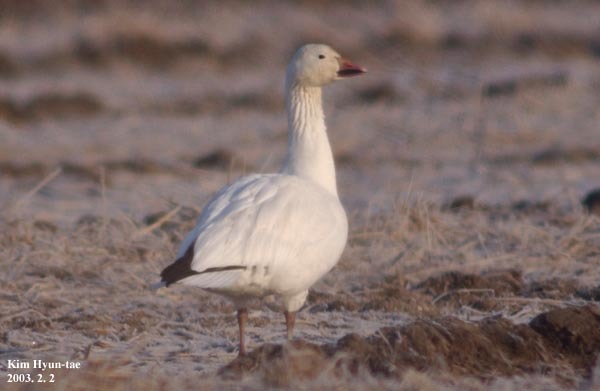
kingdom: Animalia
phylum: Chordata
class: Aves
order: Anseriformes
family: Anatidae
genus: Anser
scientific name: Anser caerulescens
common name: Snow goose
